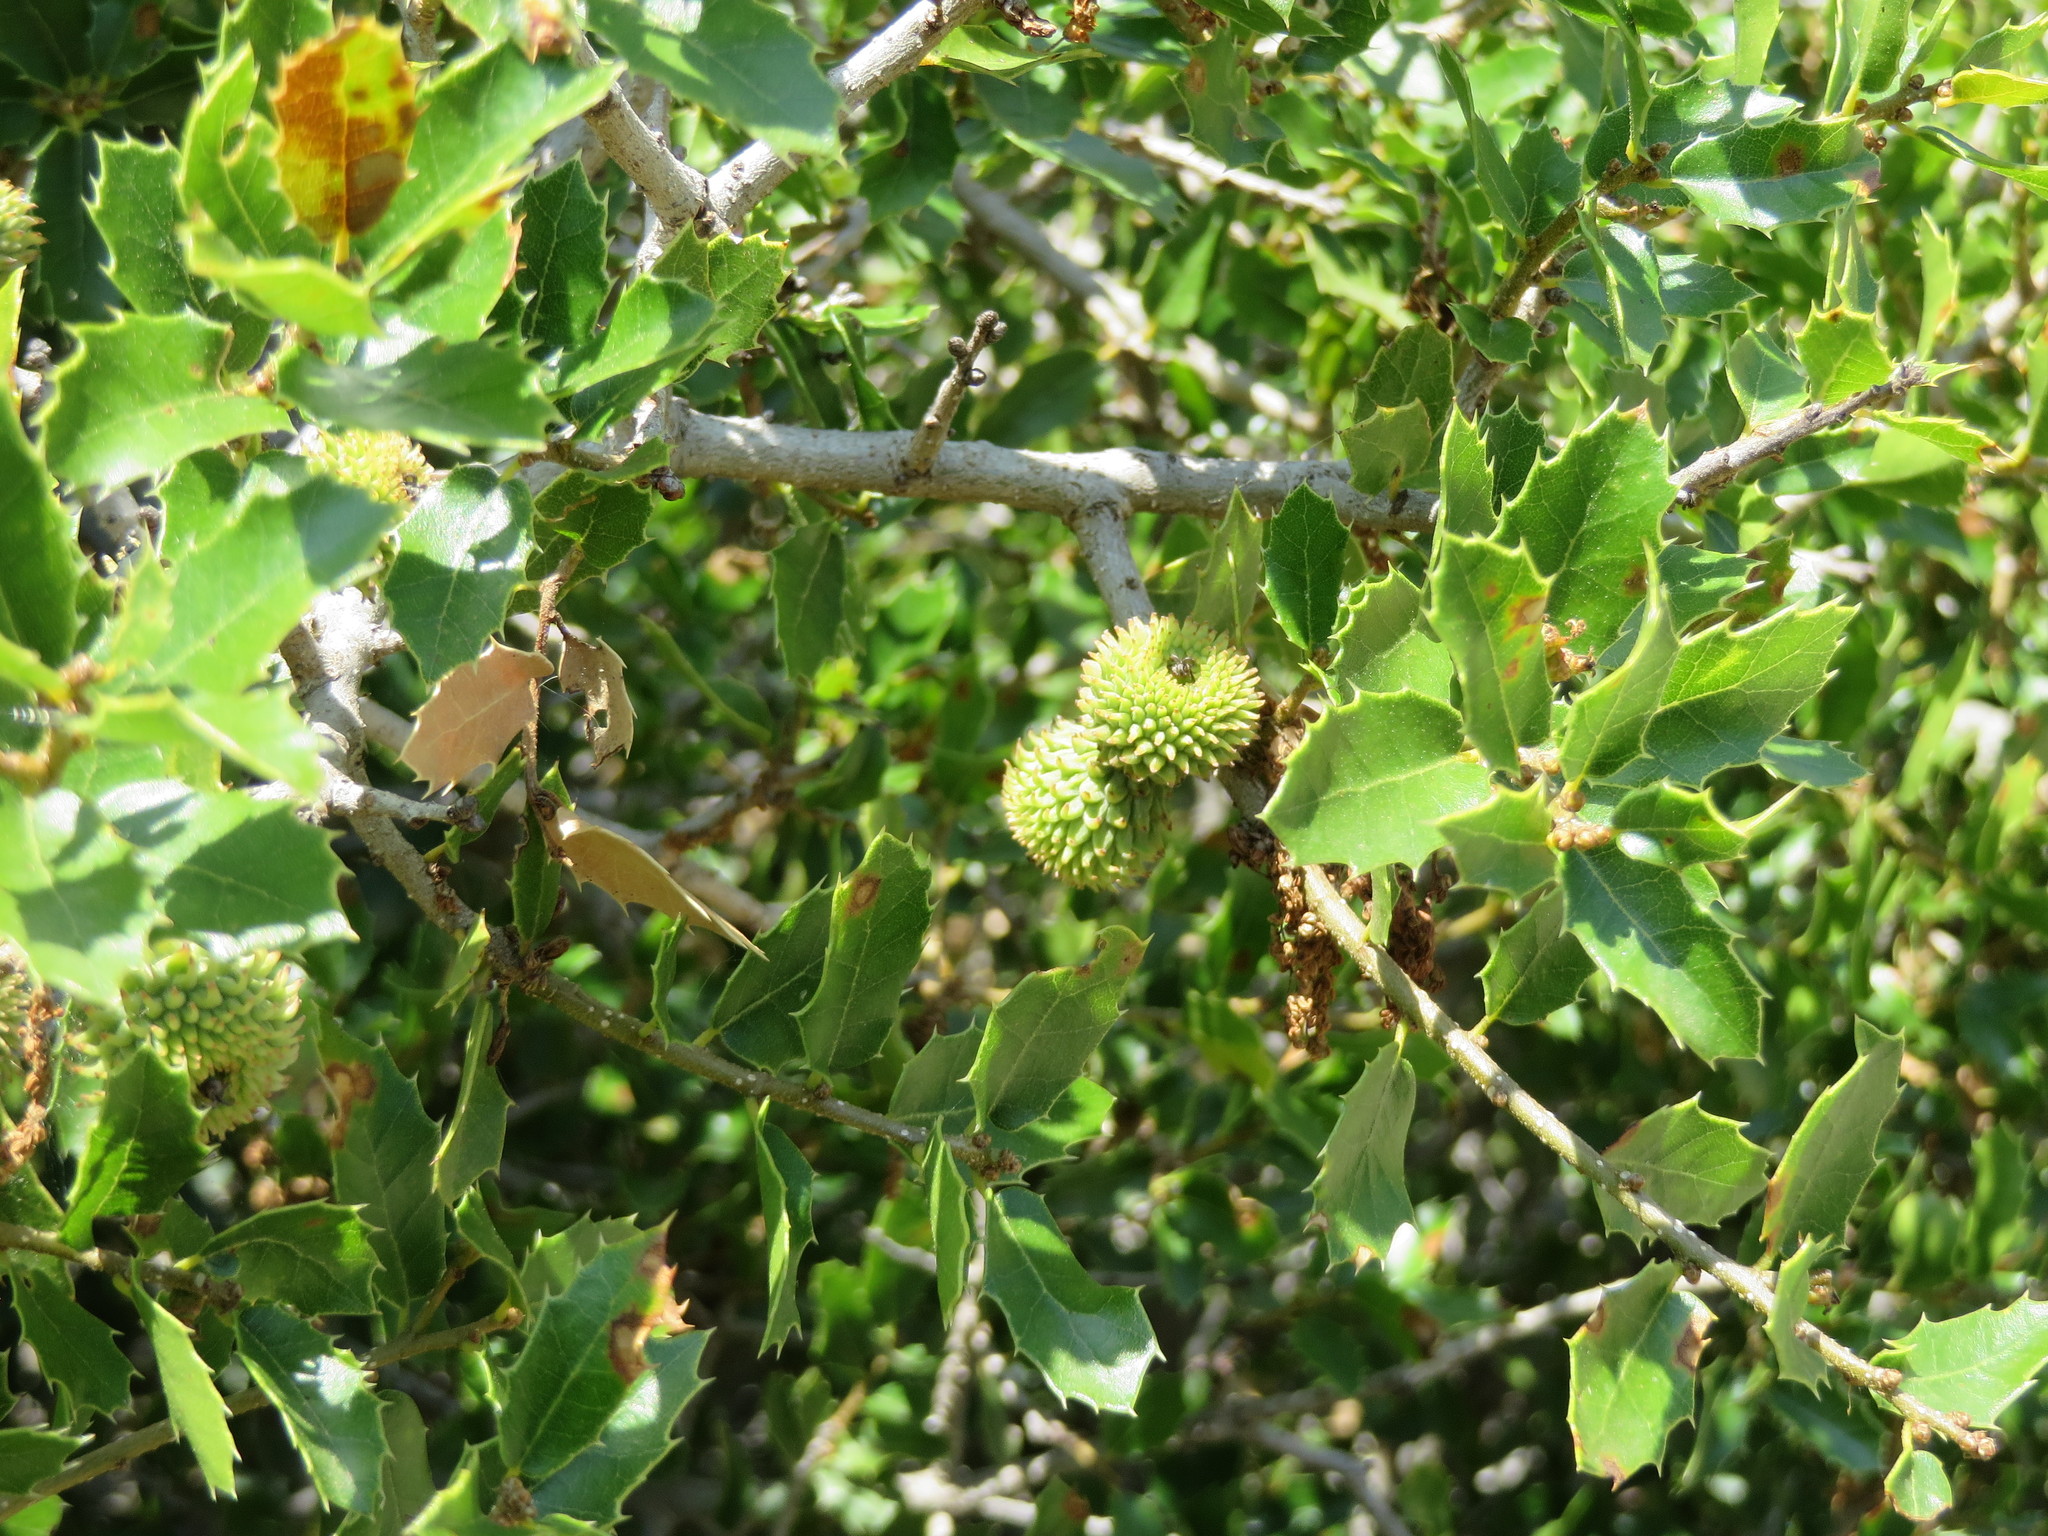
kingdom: Plantae
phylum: Tracheophyta
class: Magnoliopsida
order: Fagales
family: Fagaceae
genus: Quercus
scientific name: Quercus coccifera
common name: Kermes oak
